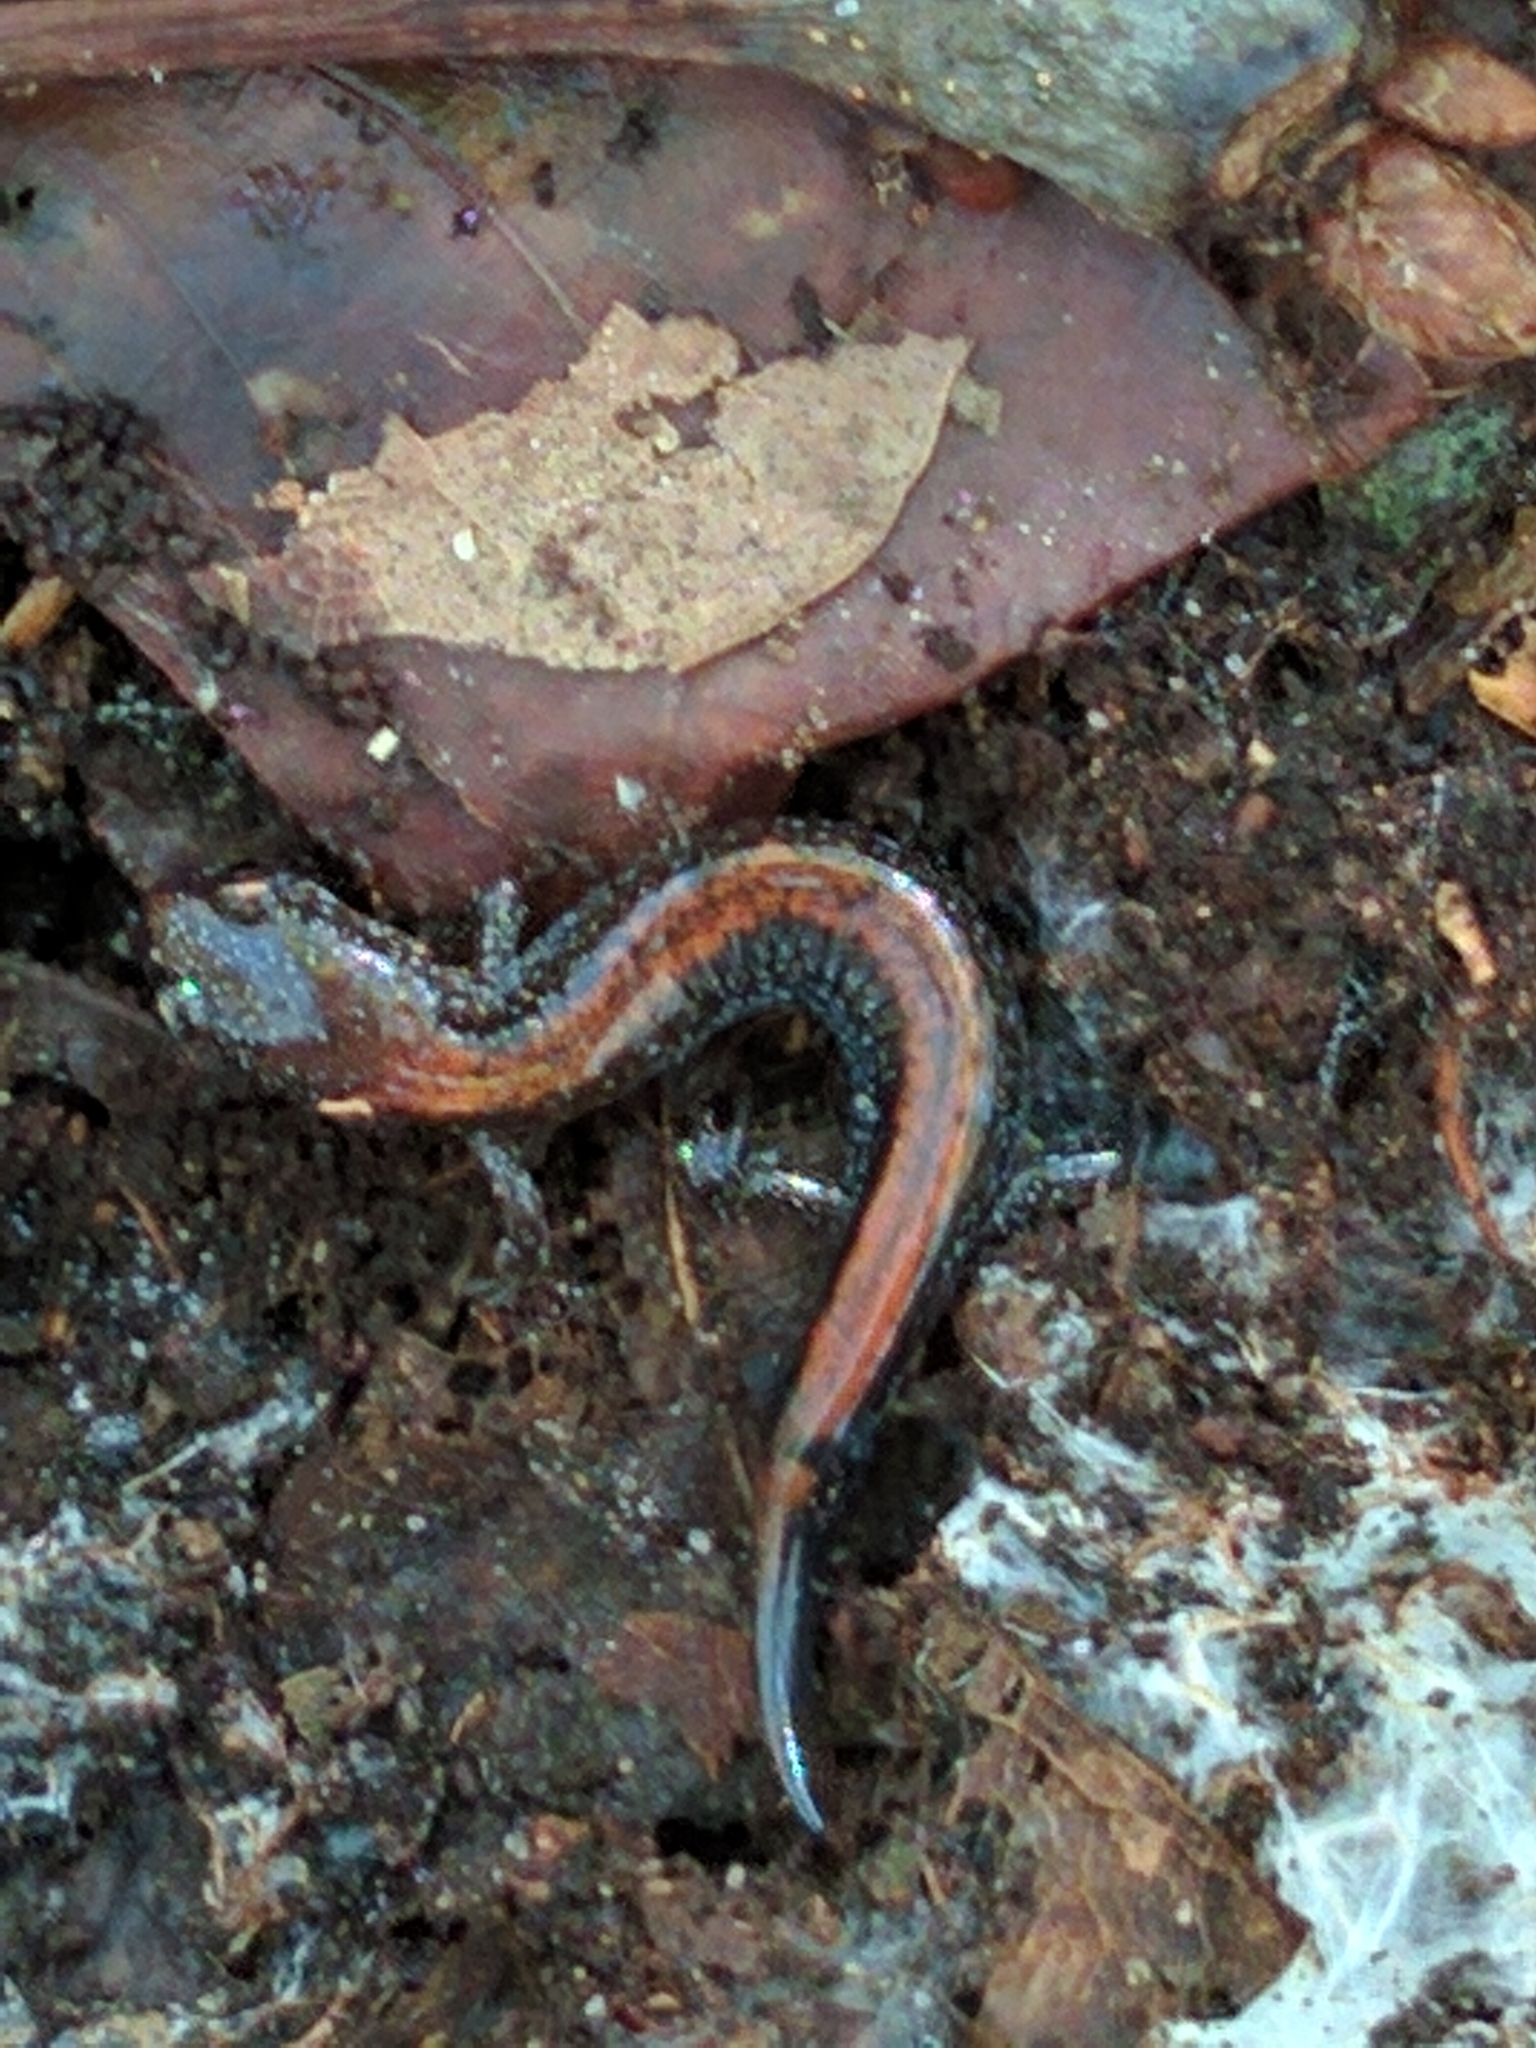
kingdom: Animalia
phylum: Chordata
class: Amphibia
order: Caudata
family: Plethodontidae
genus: Plethodon
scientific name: Plethodon cinereus
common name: Redback salamander
